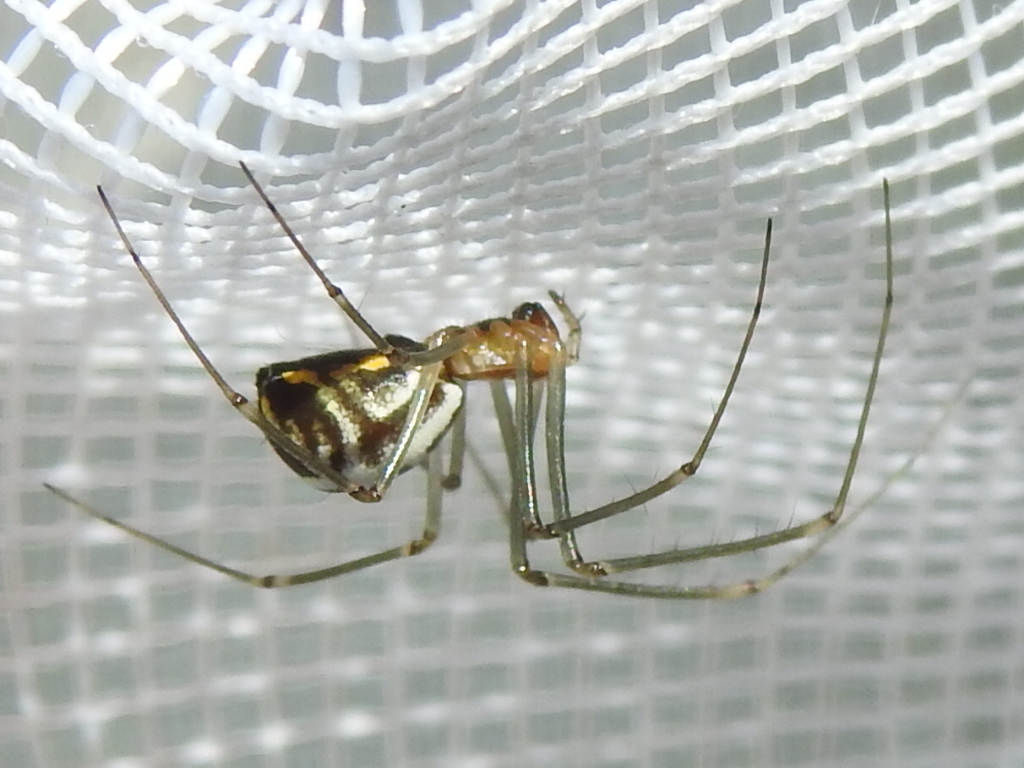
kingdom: Animalia
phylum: Arthropoda
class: Arachnida
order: Araneae
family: Linyphiidae
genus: Neriene
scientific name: Neriene radiata
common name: Filmy dome spider
